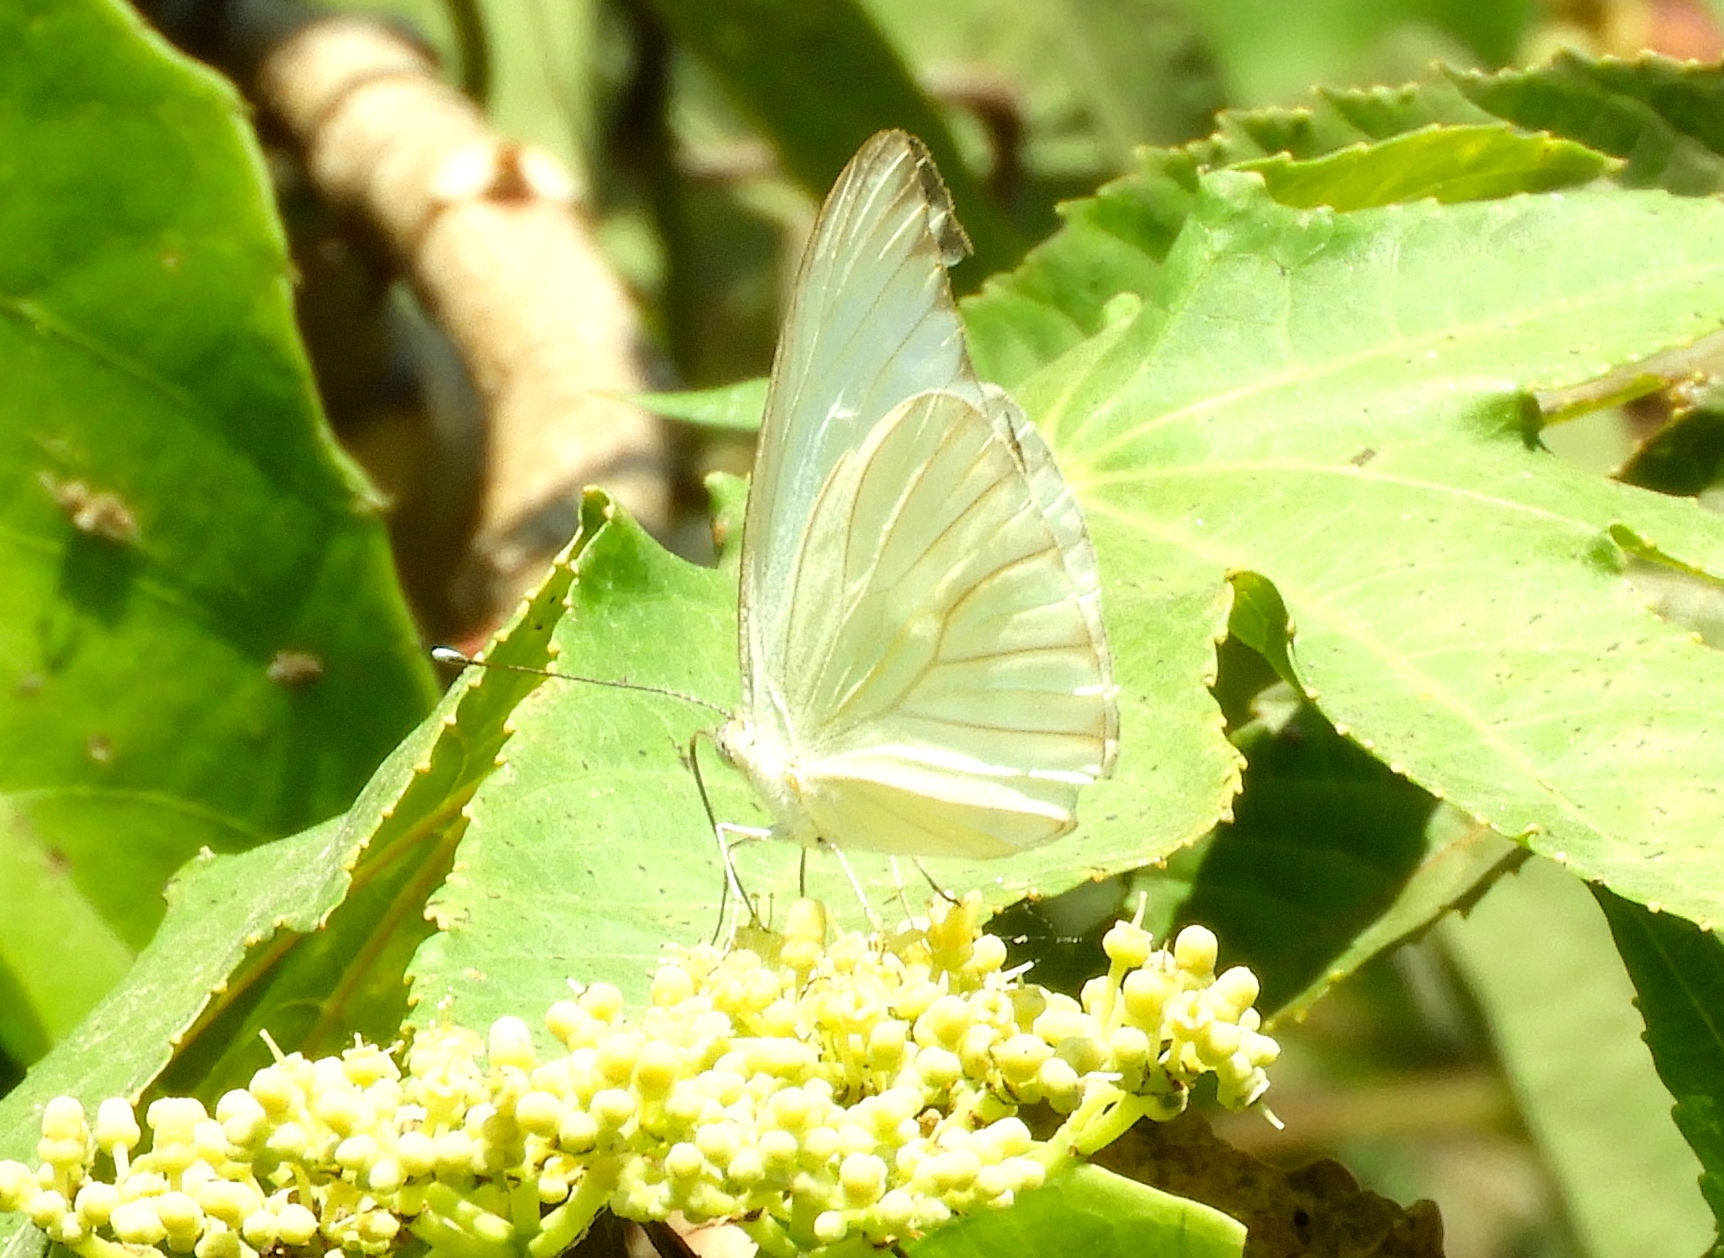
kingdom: Animalia
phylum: Arthropoda
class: Insecta
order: Lepidoptera
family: Pieridae
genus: Ascia
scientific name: Ascia monuste
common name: Great southern white
